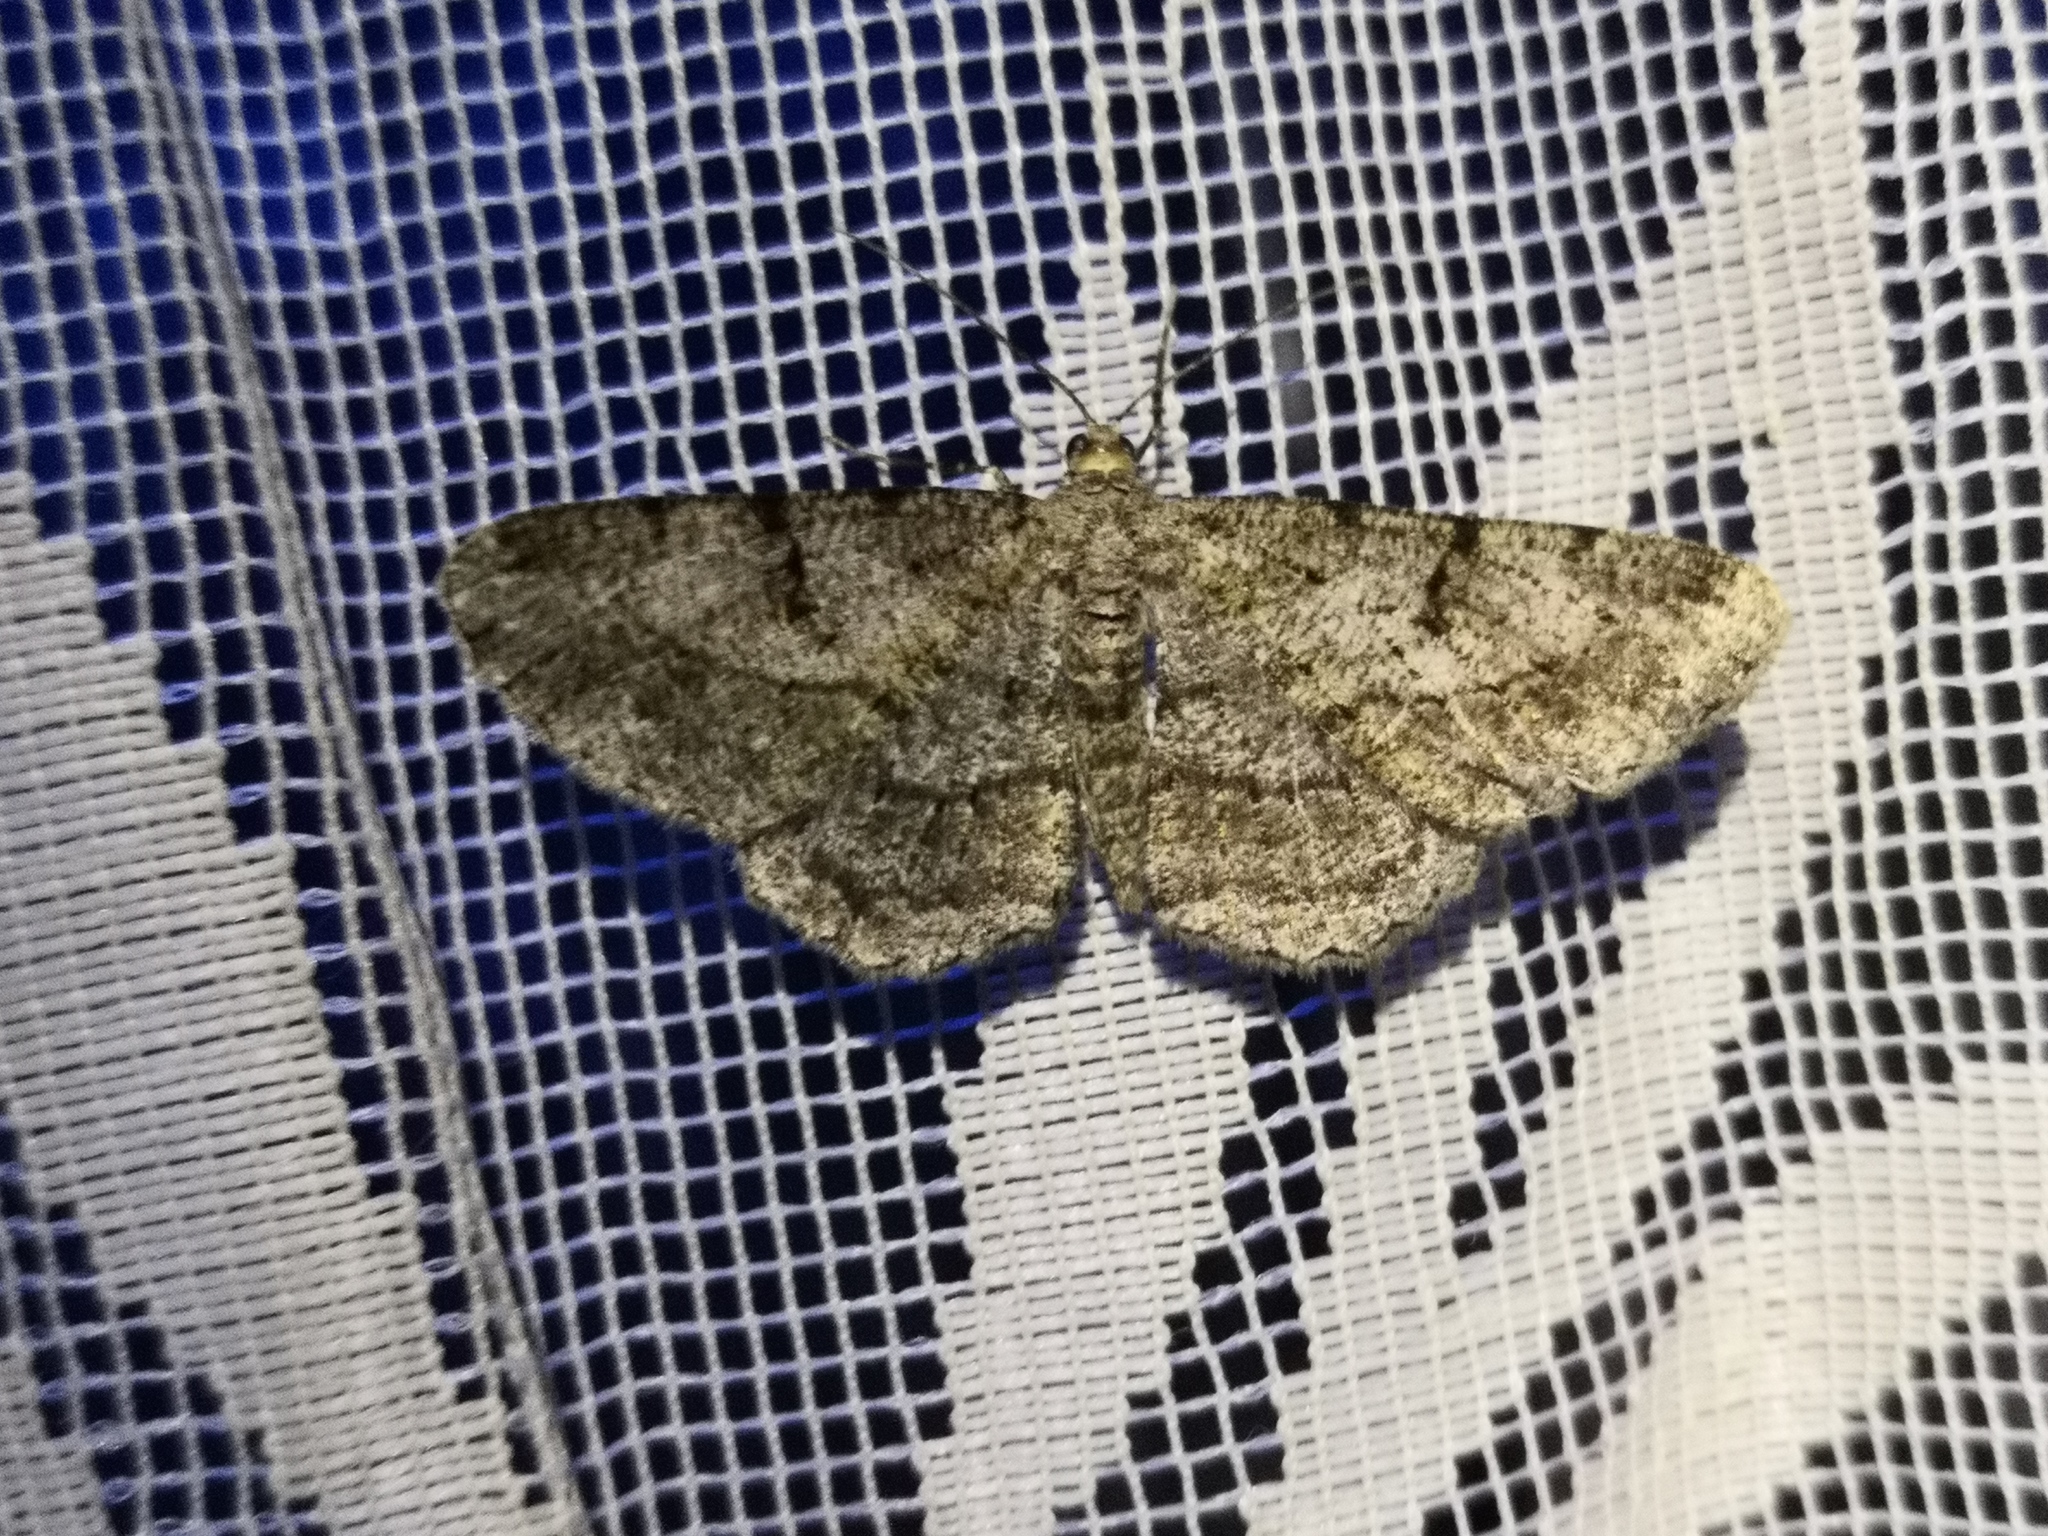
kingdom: Animalia
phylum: Arthropoda
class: Insecta
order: Lepidoptera
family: Geometridae
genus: Peribatodes
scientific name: Peribatodes rhomboidaria
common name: Willow beauty
